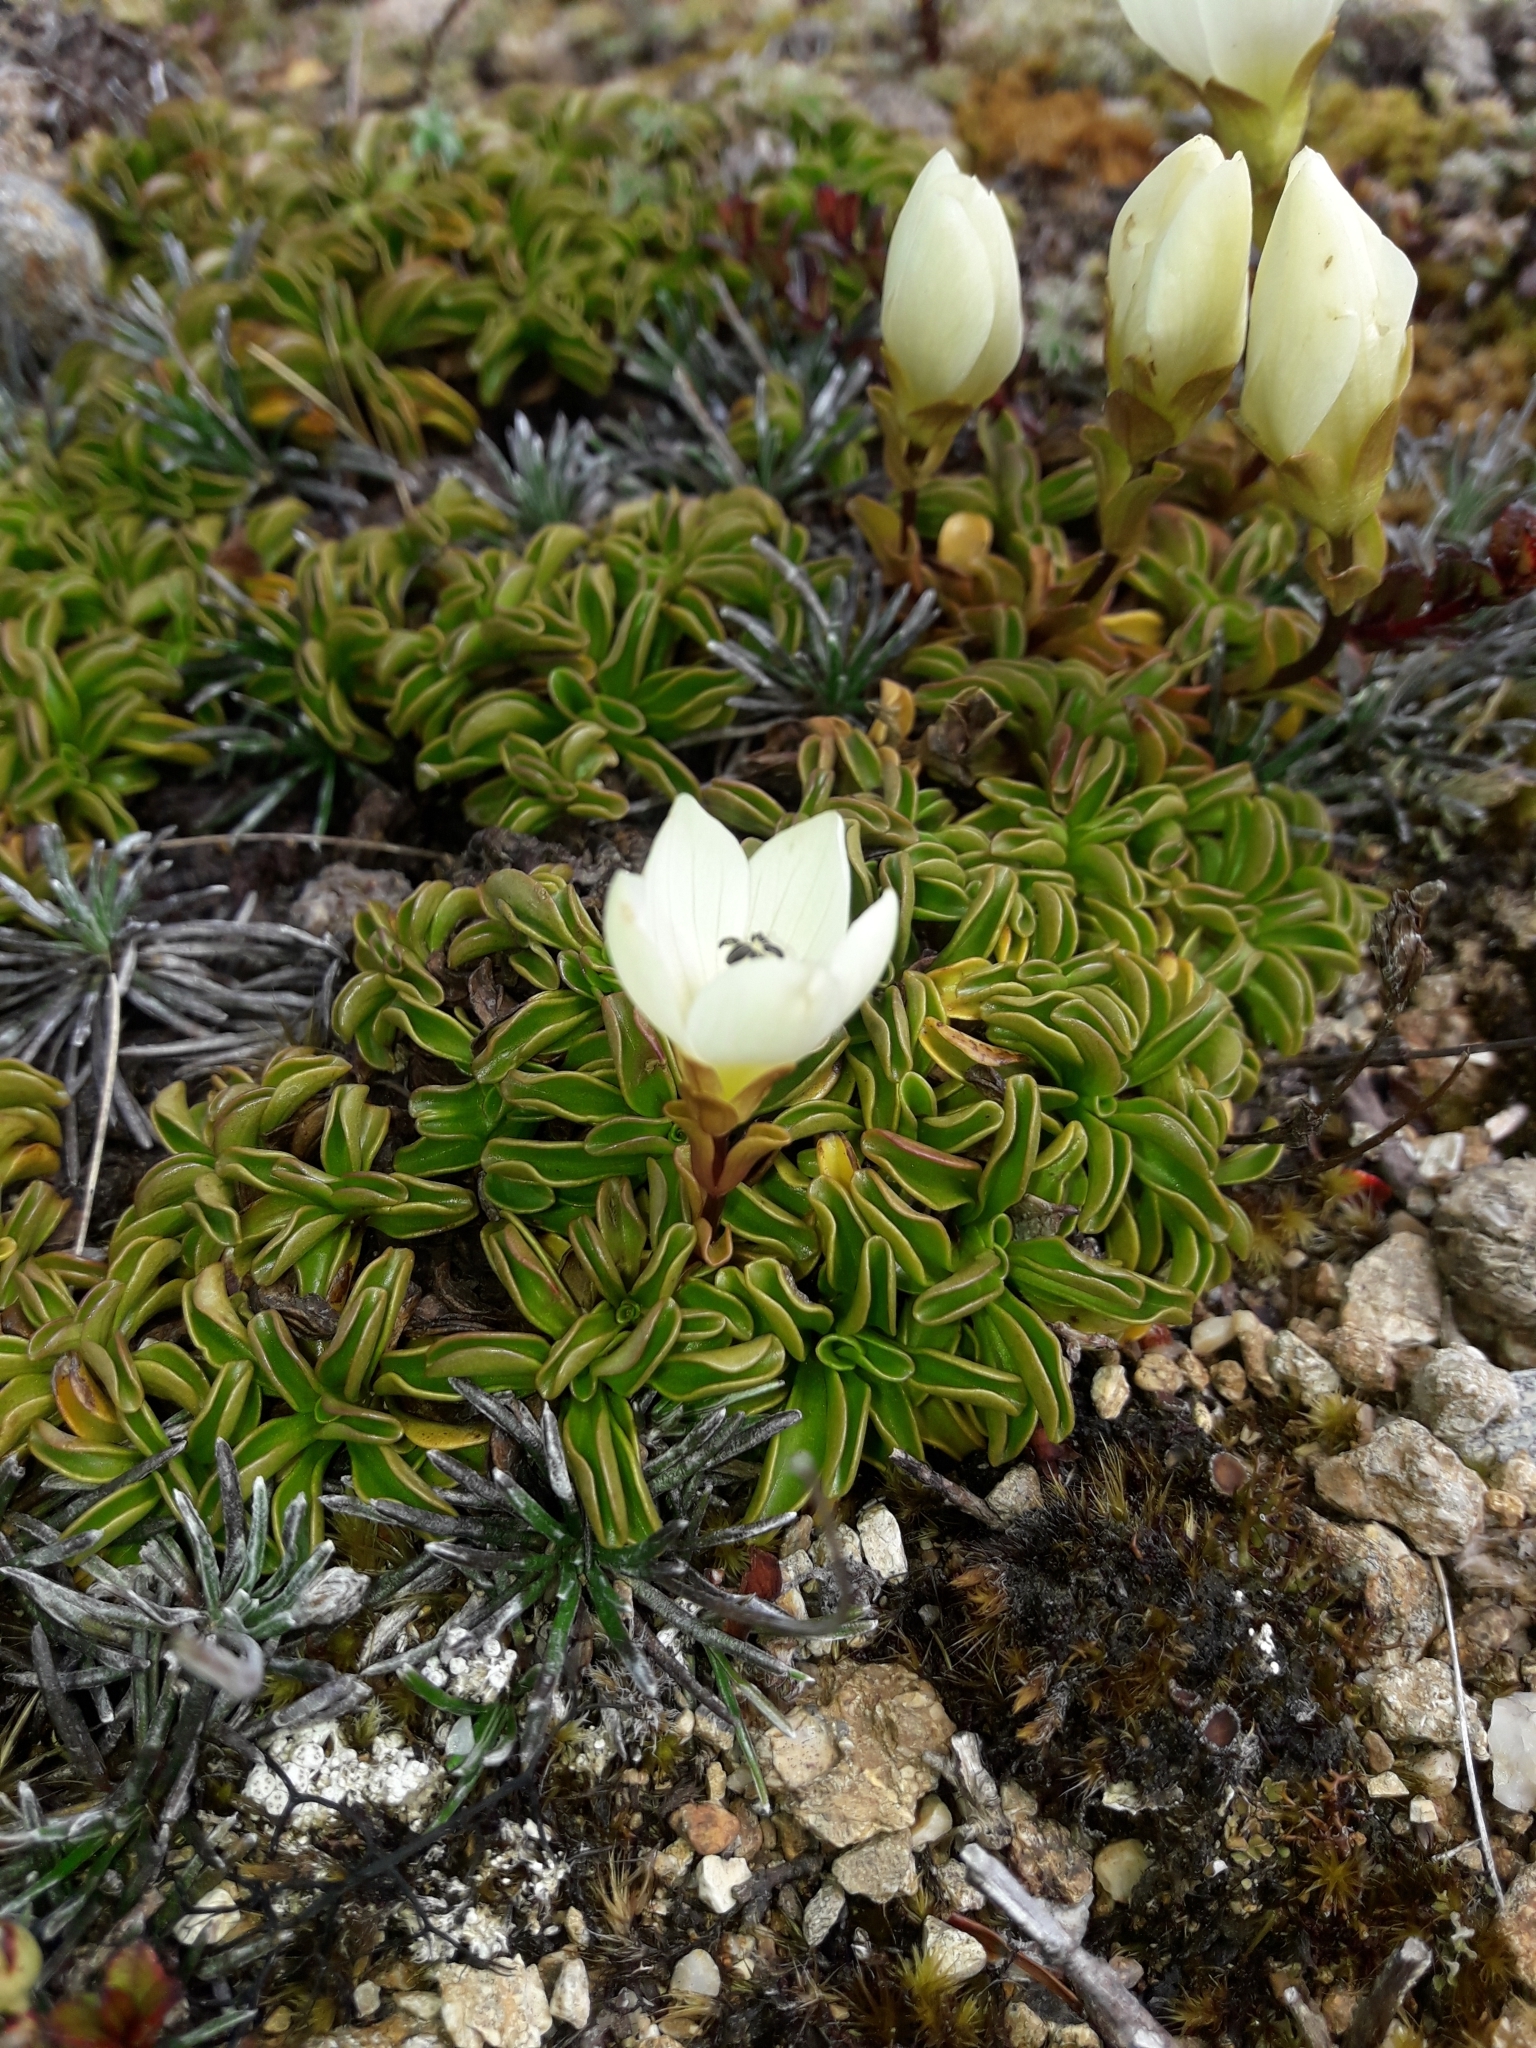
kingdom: Plantae
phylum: Tracheophyta
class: Magnoliopsida
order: Gentianales
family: Gentianaceae
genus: Gentianella
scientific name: Gentianella decumbens
